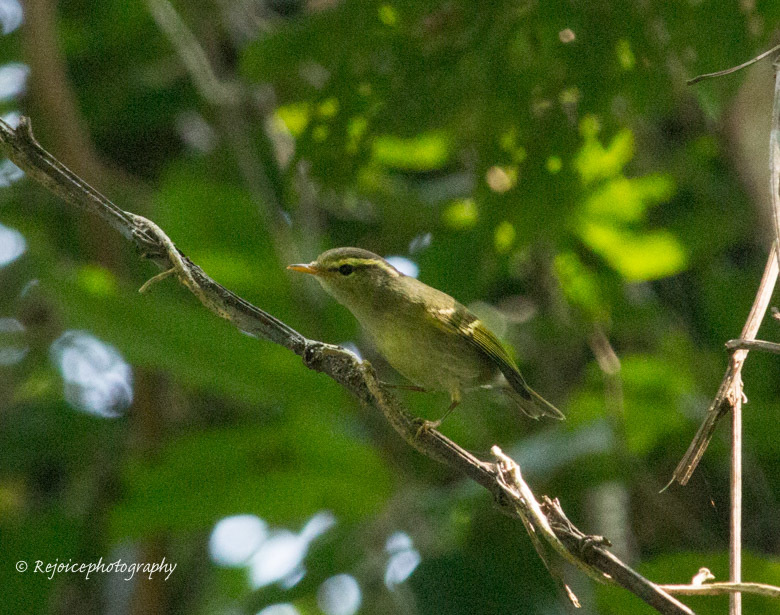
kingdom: Animalia
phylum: Chordata
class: Aves
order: Passeriformes
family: Phylloscopidae
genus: Phylloscopus
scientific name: Phylloscopus reguloides
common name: Blyth's leaf warbler
